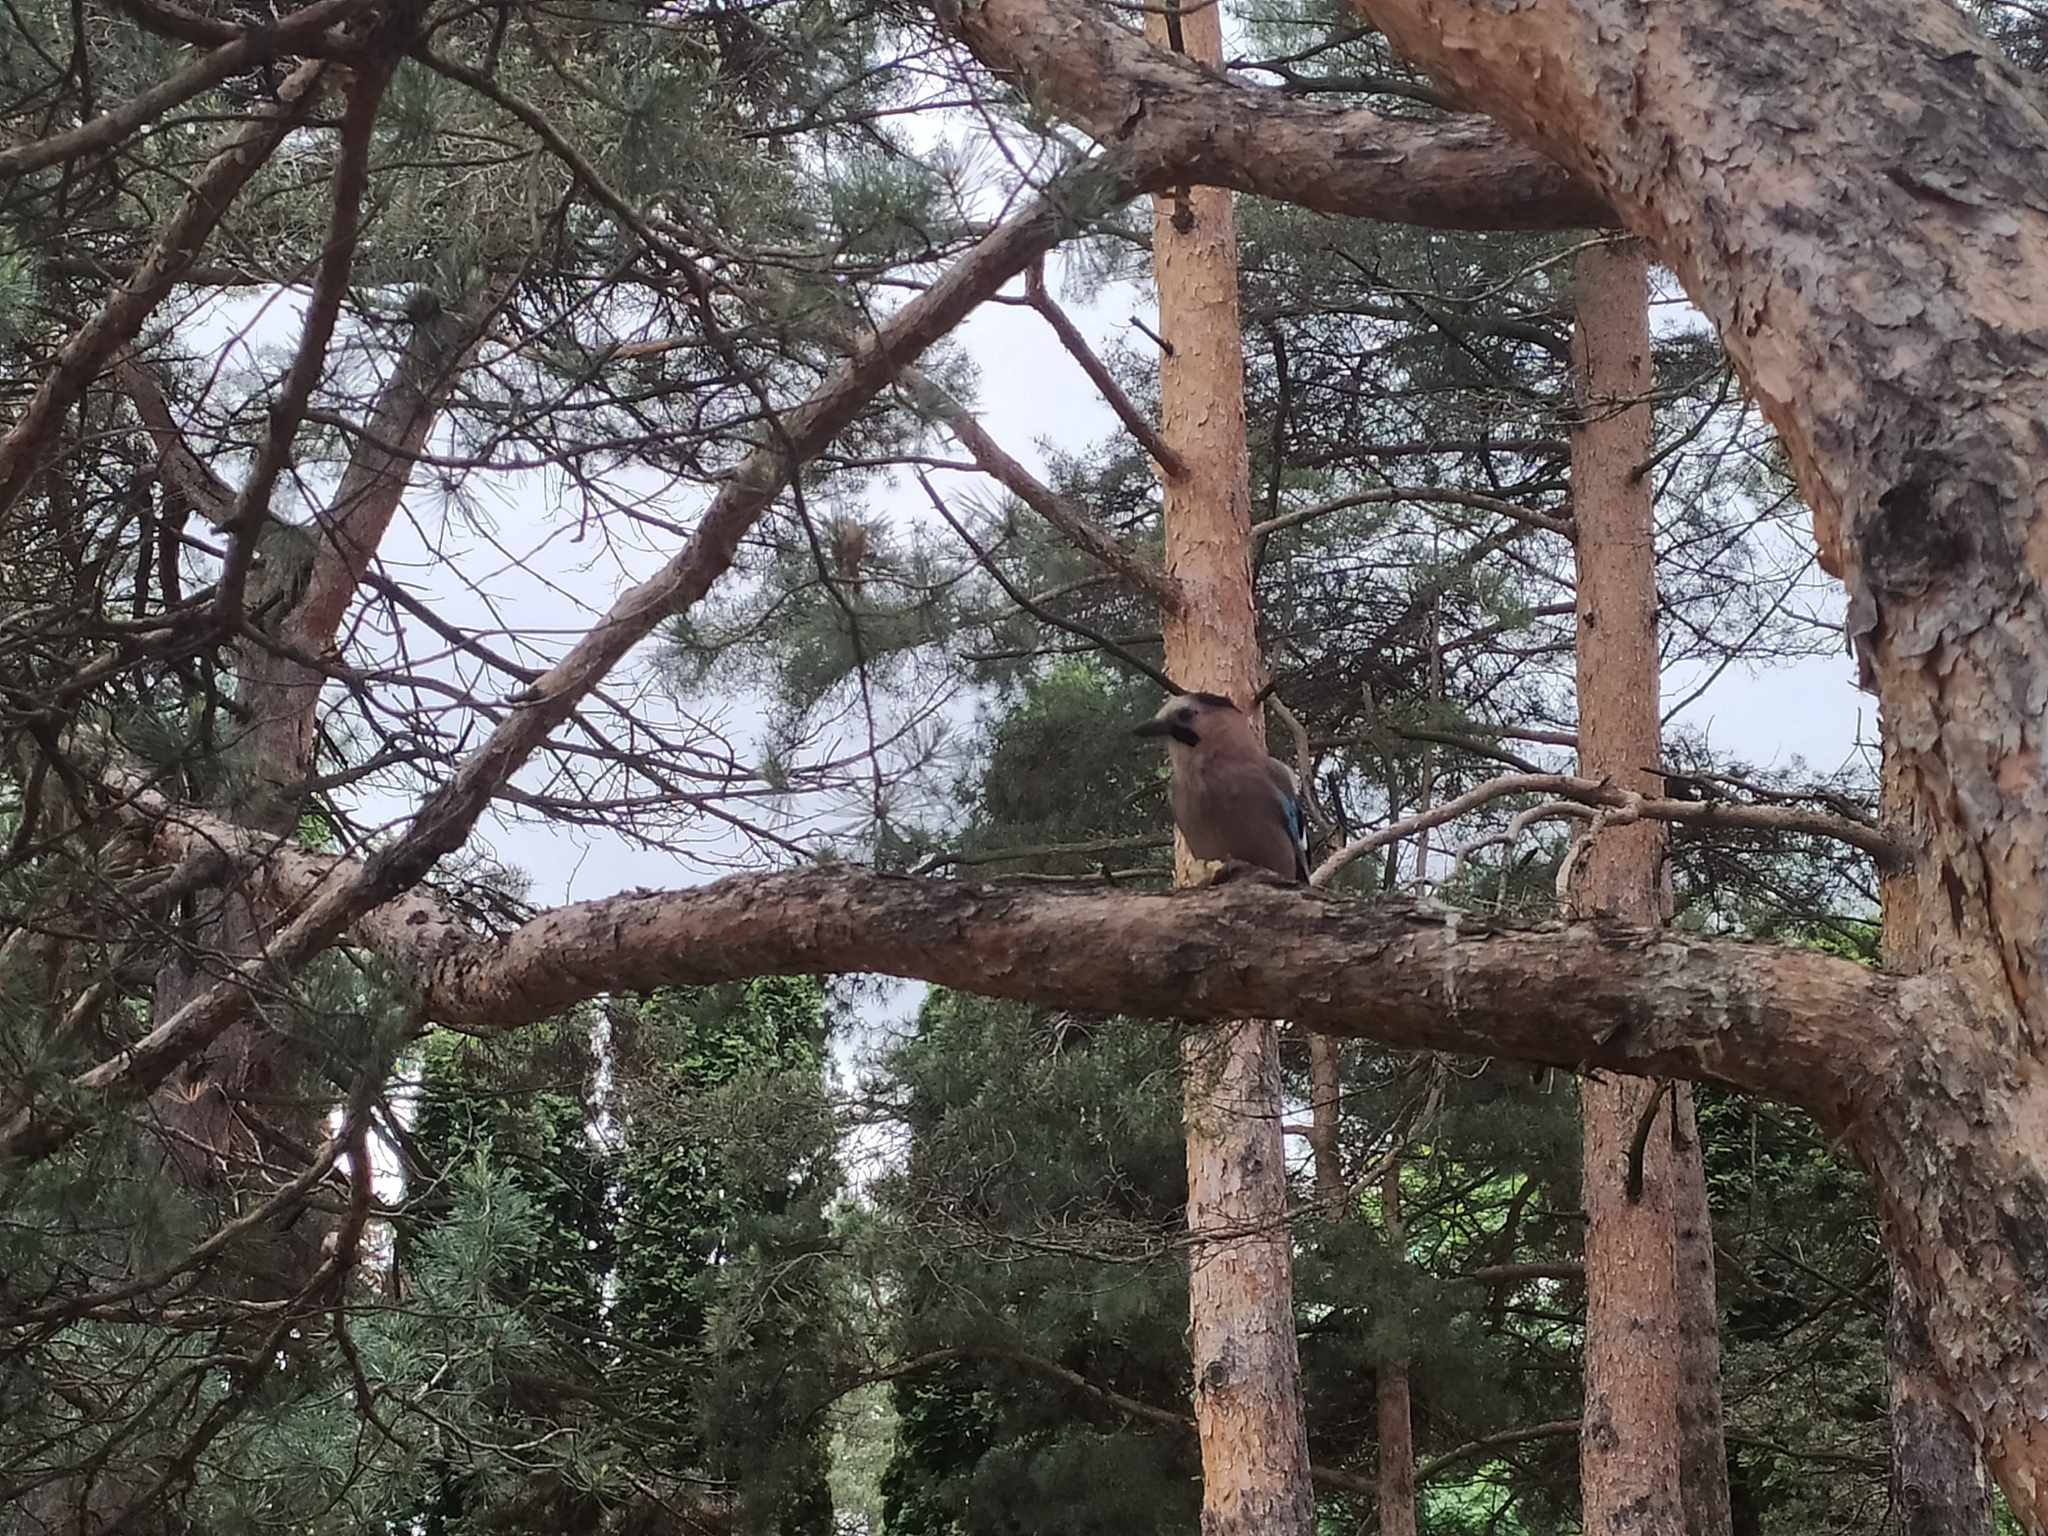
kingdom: Animalia
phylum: Chordata
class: Aves
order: Passeriformes
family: Corvidae
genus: Garrulus
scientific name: Garrulus glandarius
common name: Eurasian jay
